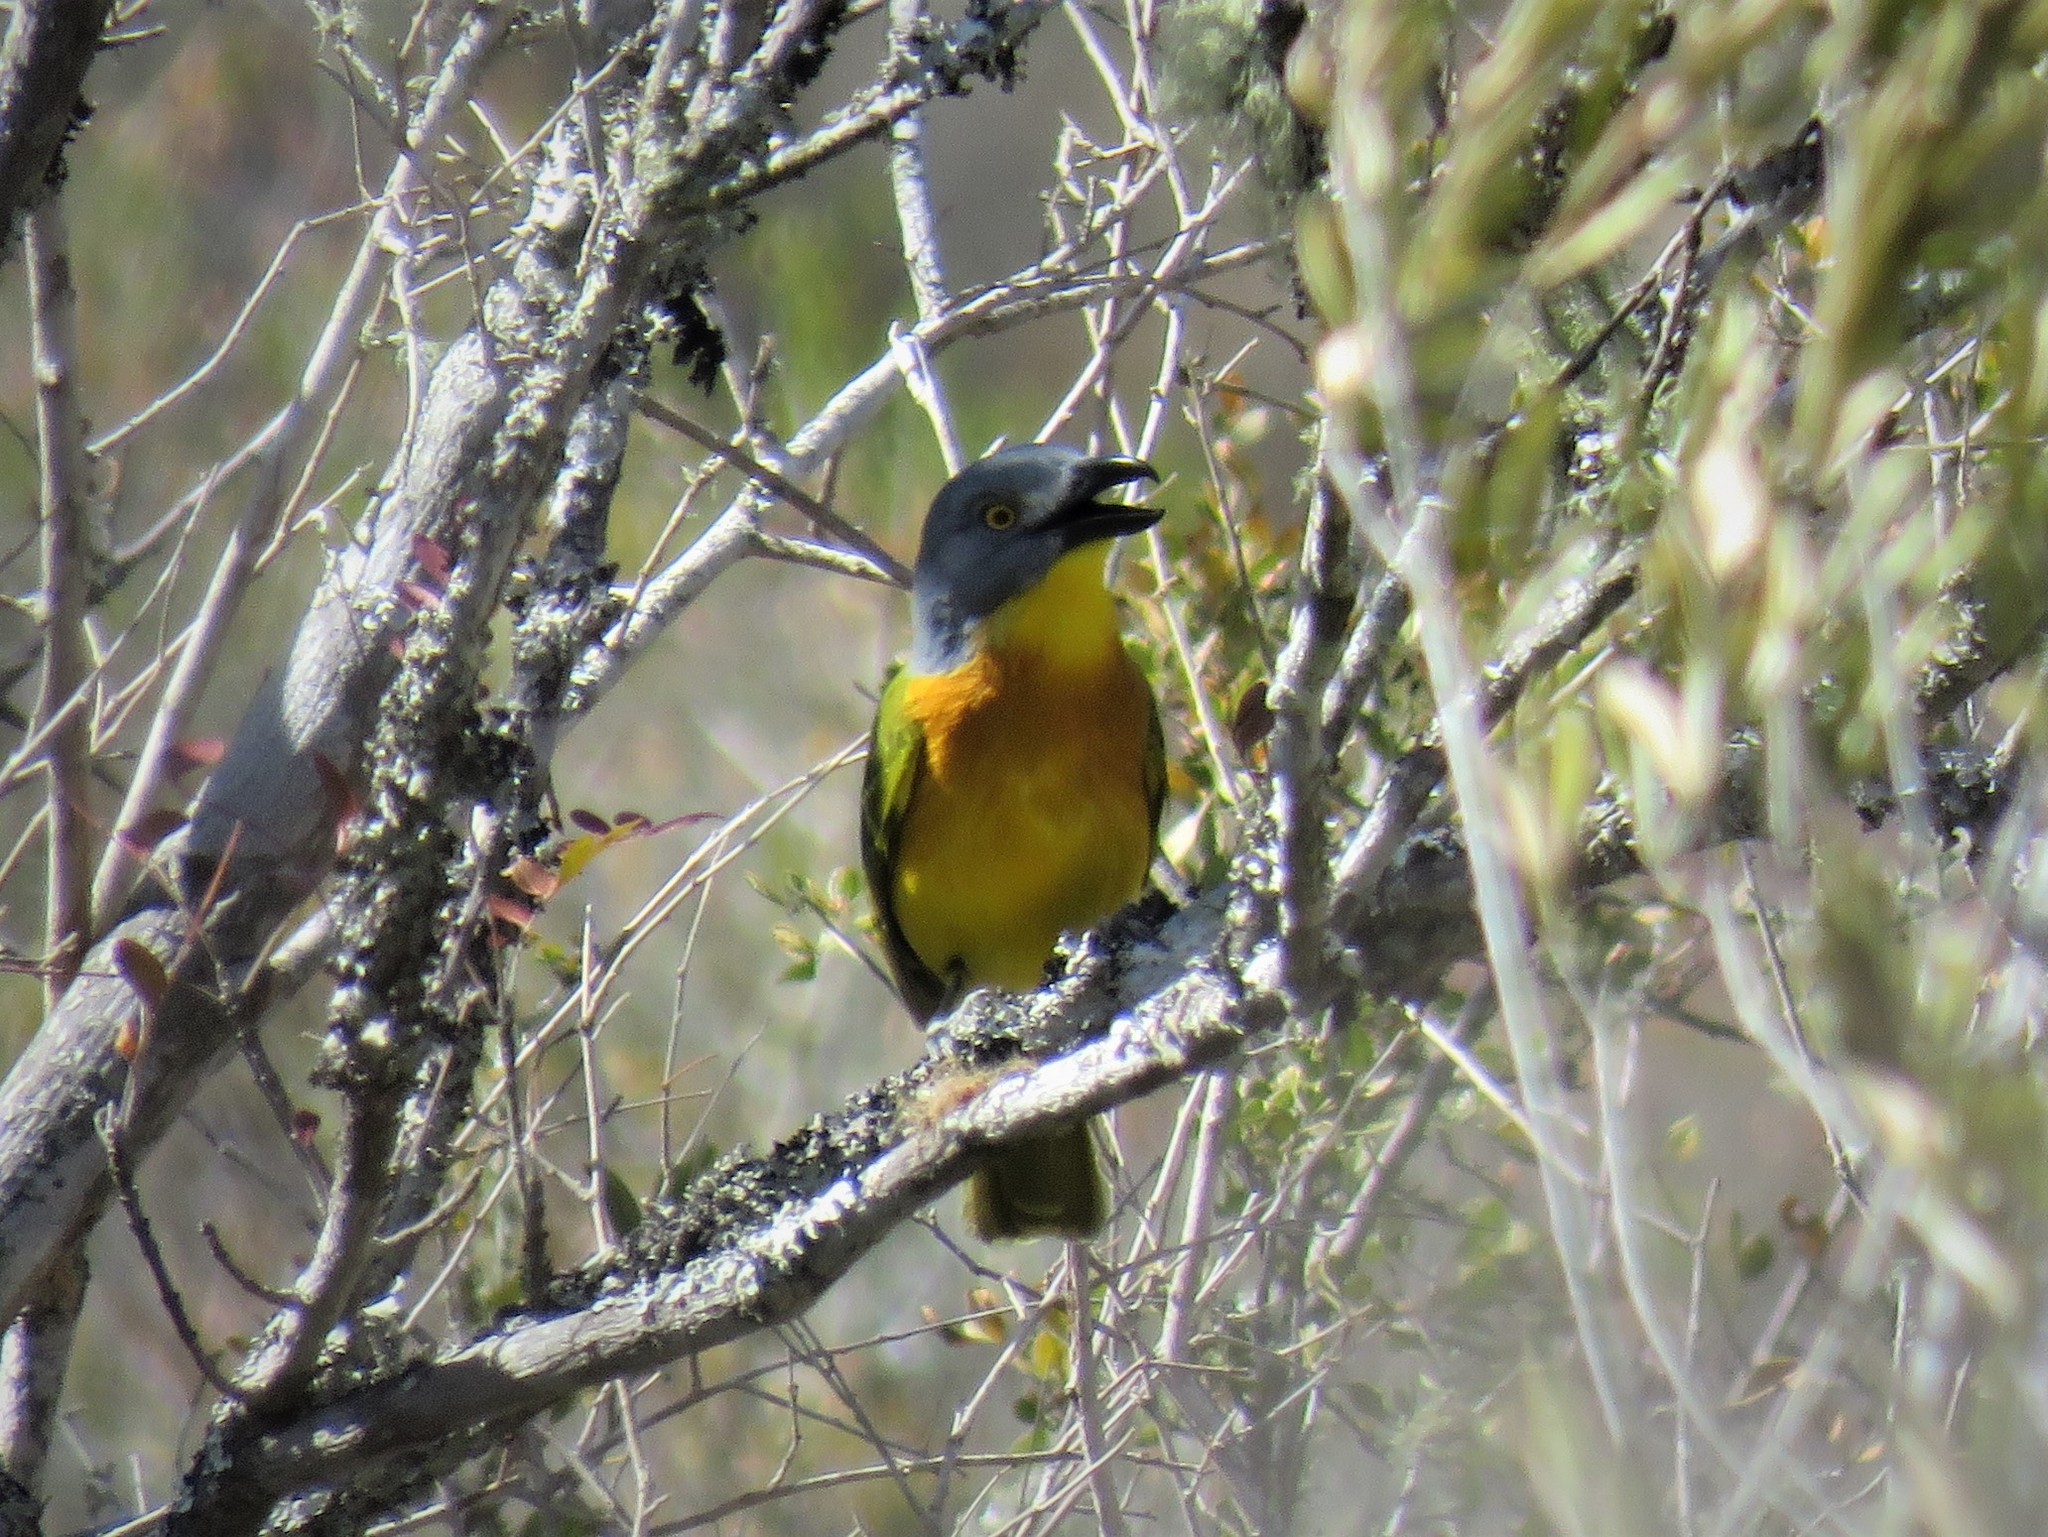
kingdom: Animalia
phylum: Chordata
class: Aves
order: Passeriformes
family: Malaconotidae
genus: Malaconotus
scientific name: Malaconotus blanchoti
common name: Grey-headed bushshrike
